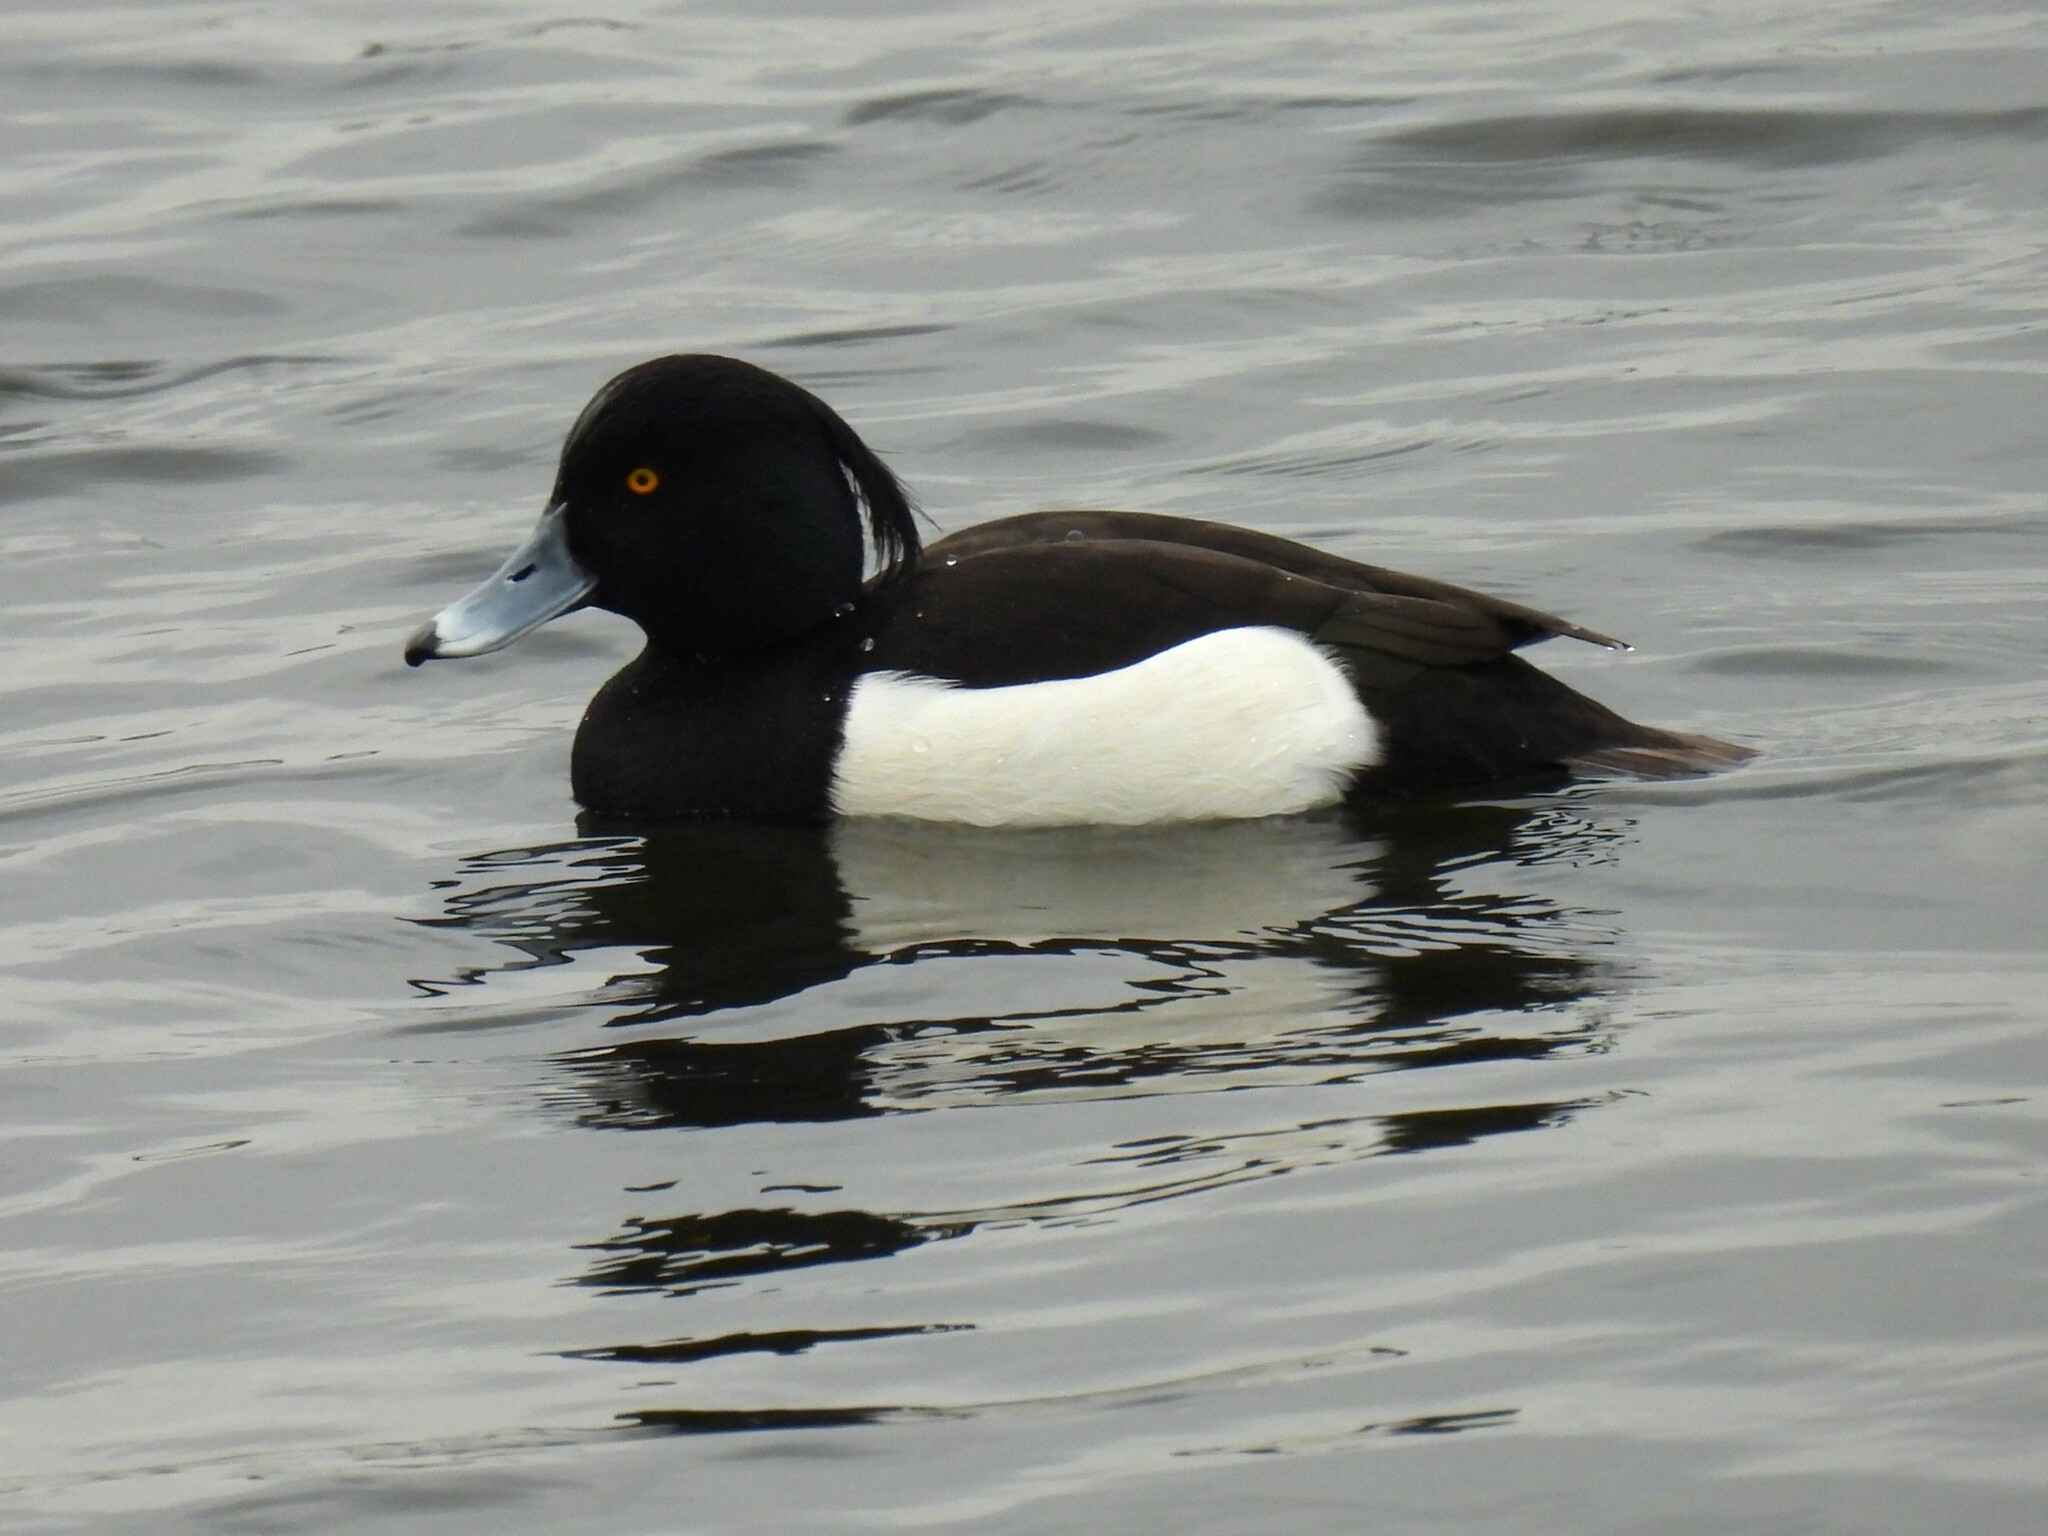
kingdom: Animalia
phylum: Chordata
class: Aves
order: Anseriformes
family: Anatidae
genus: Aythya
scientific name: Aythya fuligula
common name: Tufted duck
